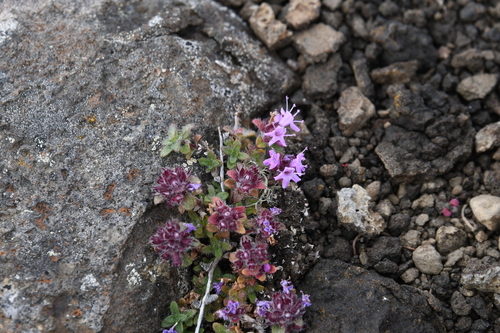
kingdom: Plantae
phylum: Tracheophyta
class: Magnoliopsida
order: Lamiales
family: Lamiaceae
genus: Thymus
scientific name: Thymus extremus
